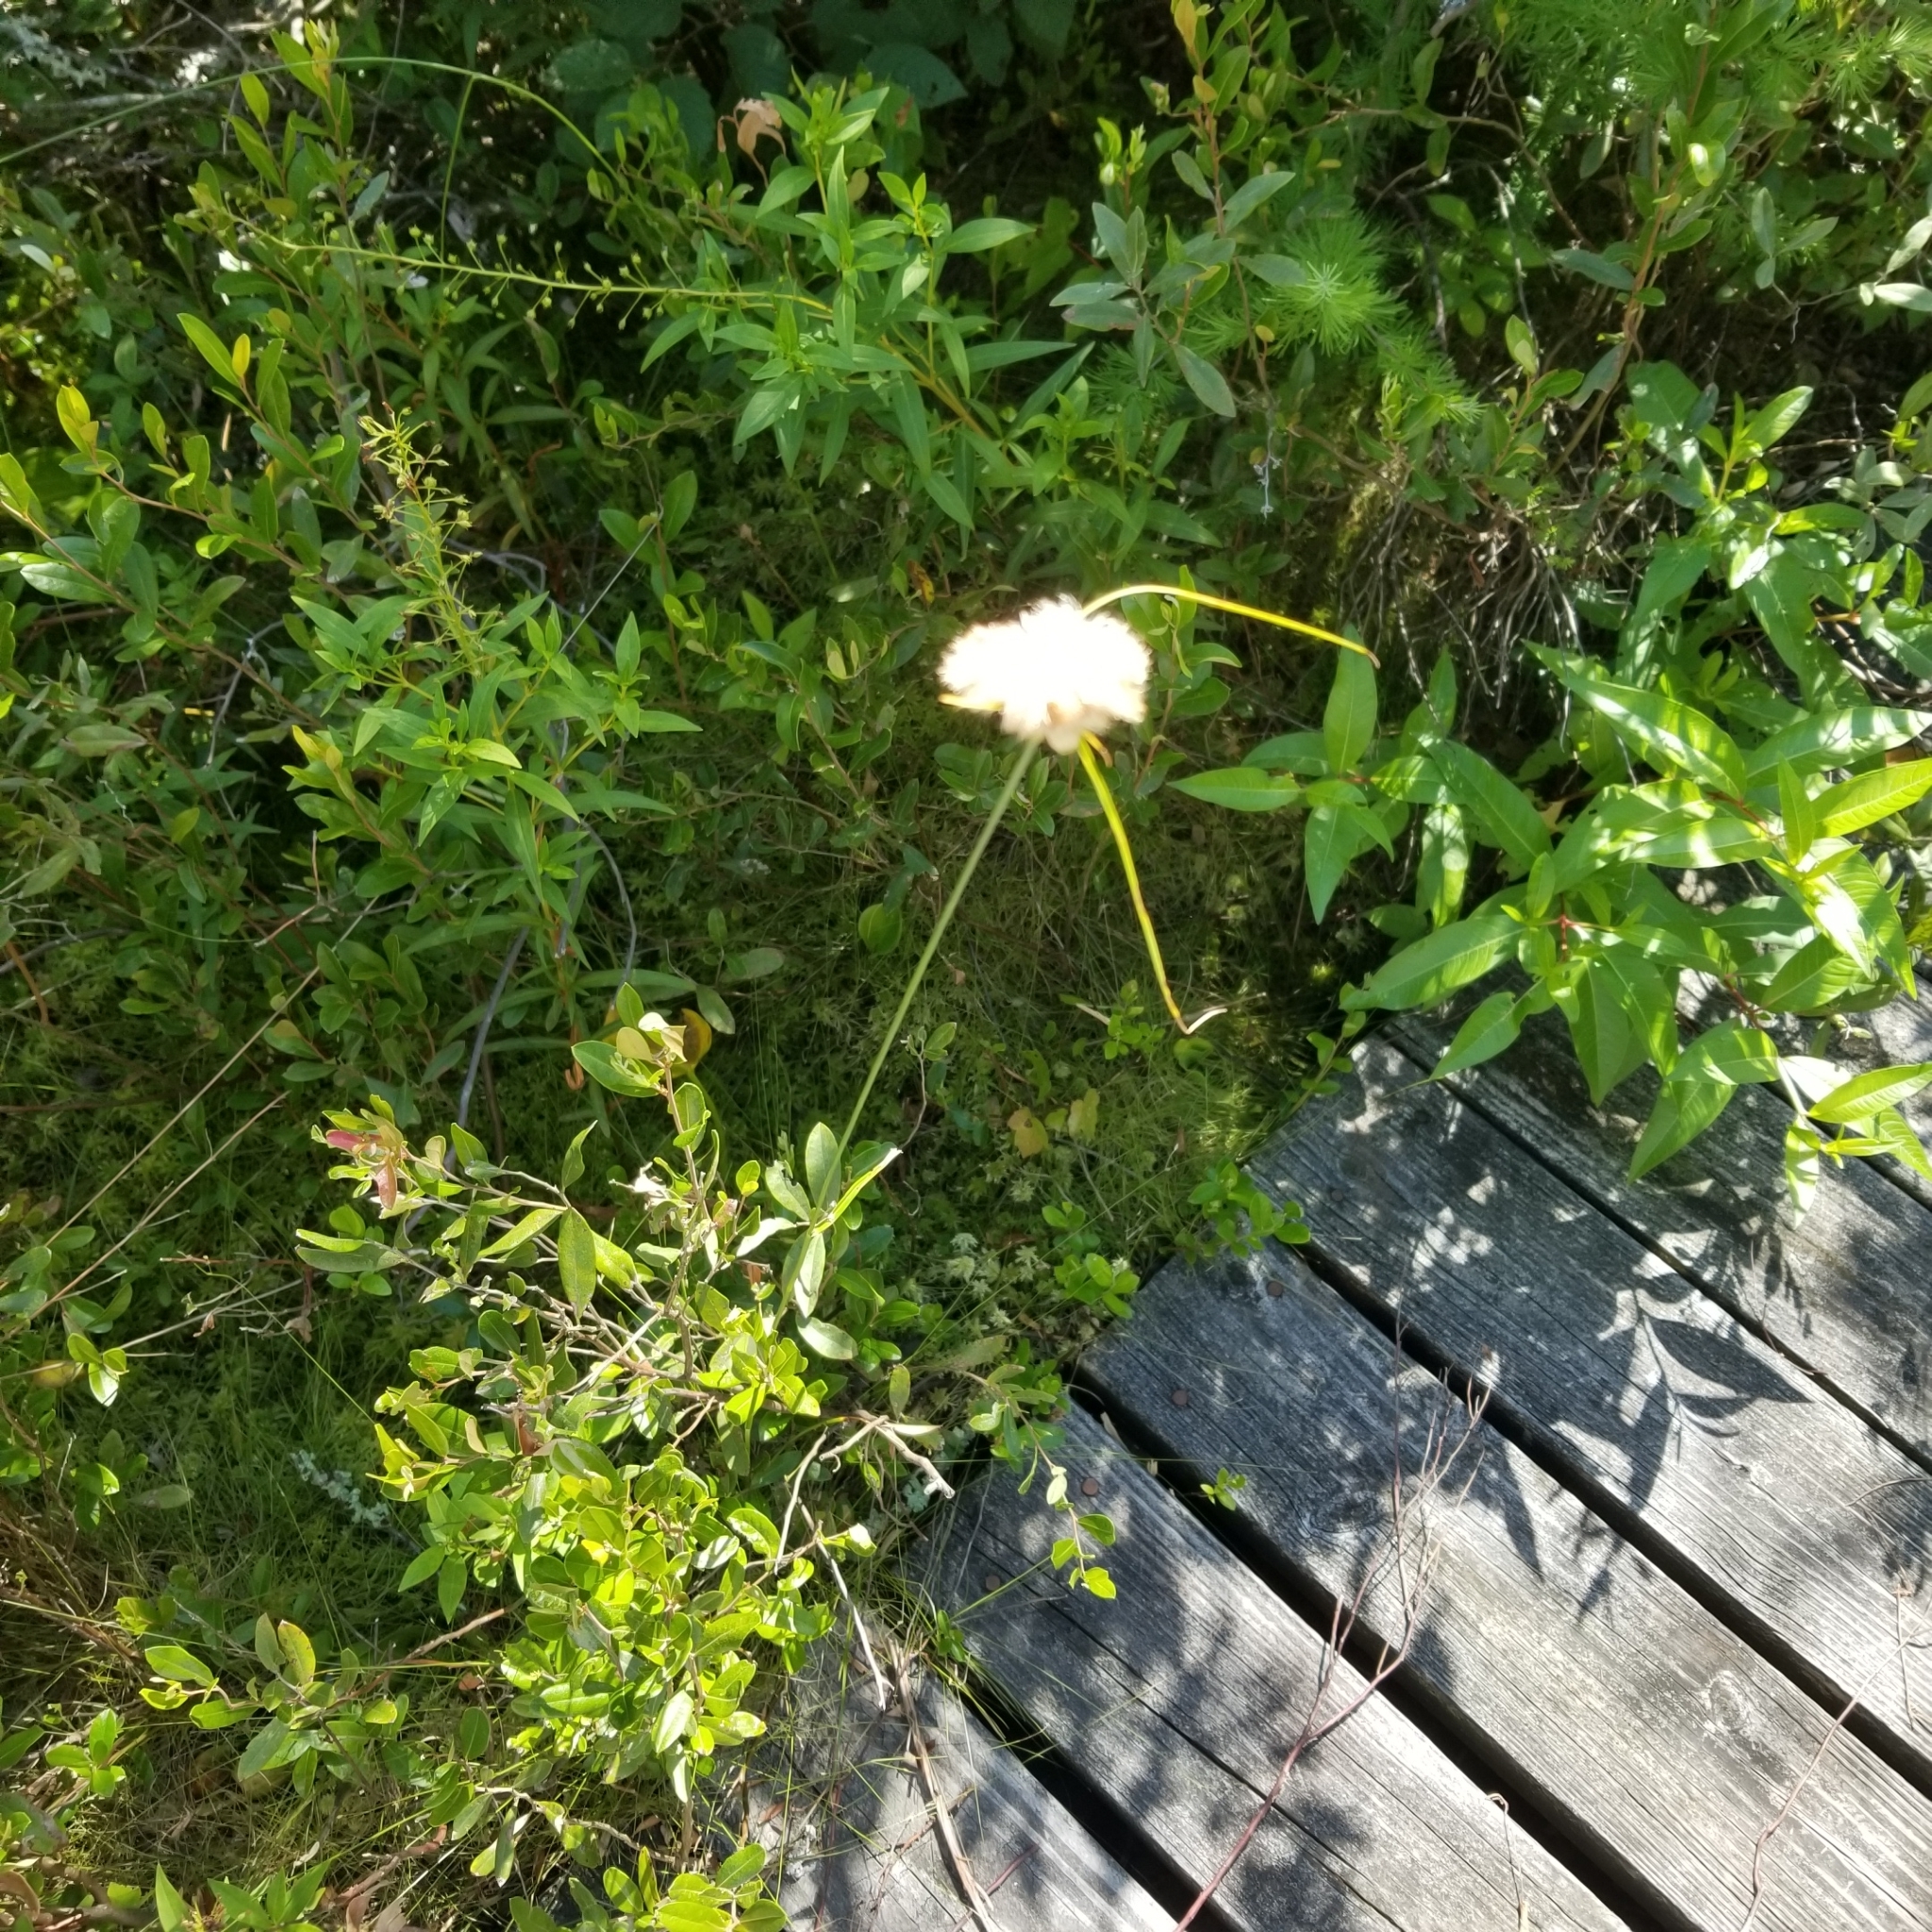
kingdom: Plantae
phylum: Tracheophyta
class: Liliopsida
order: Poales
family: Cyperaceae
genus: Eriophorum
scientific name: Eriophorum virginicum
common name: Tawny cottongrass
